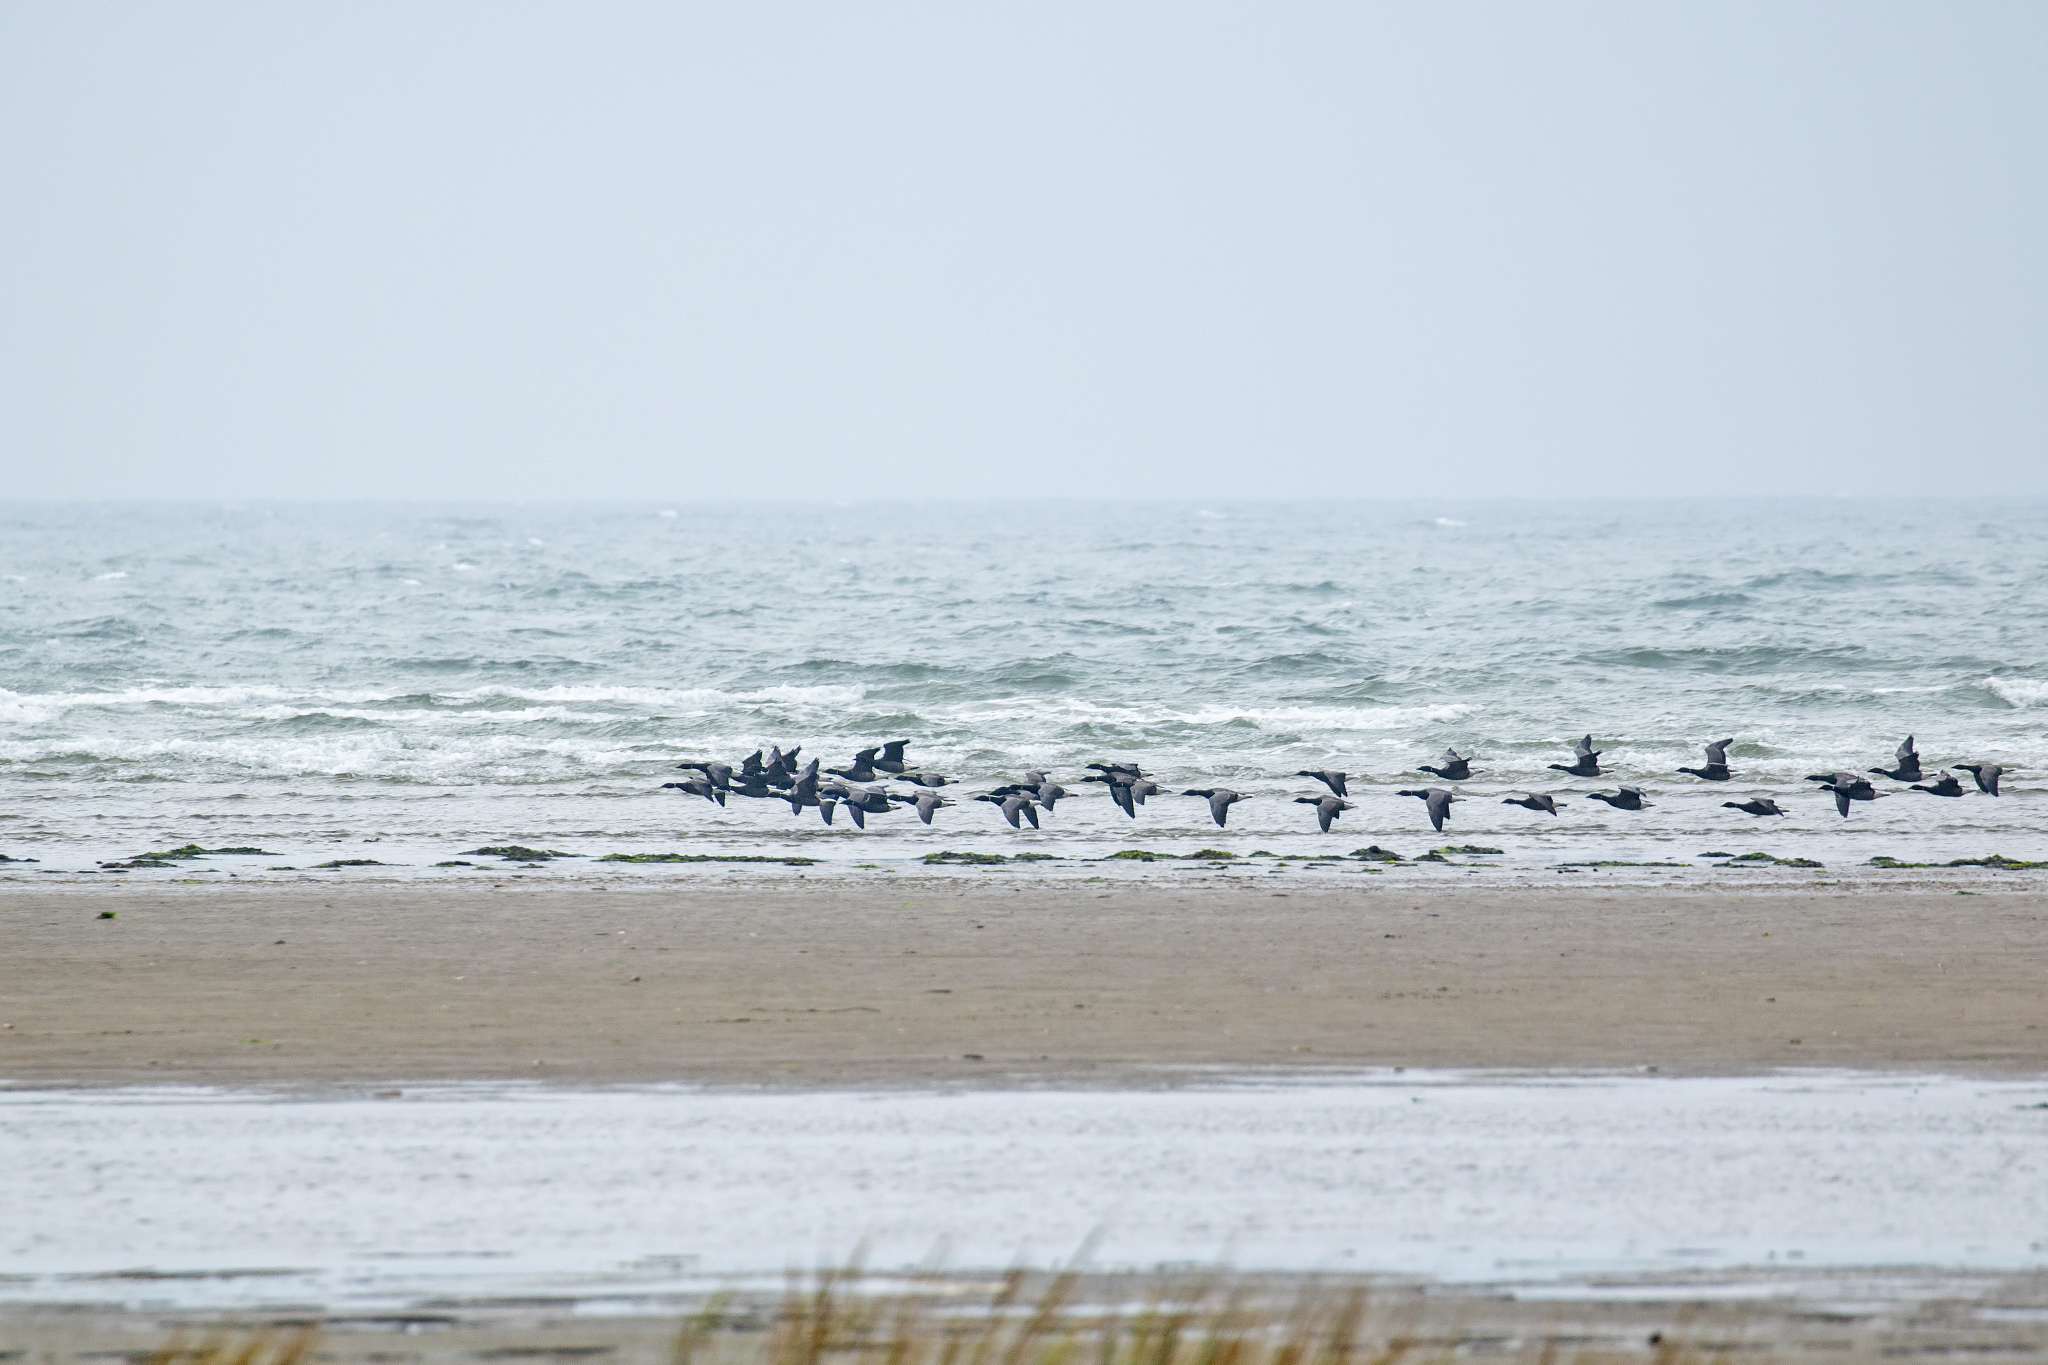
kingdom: Animalia
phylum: Chordata
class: Aves
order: Anseriformes
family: Anatidae
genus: Branta
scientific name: Branta bernicla
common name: Brant goose
